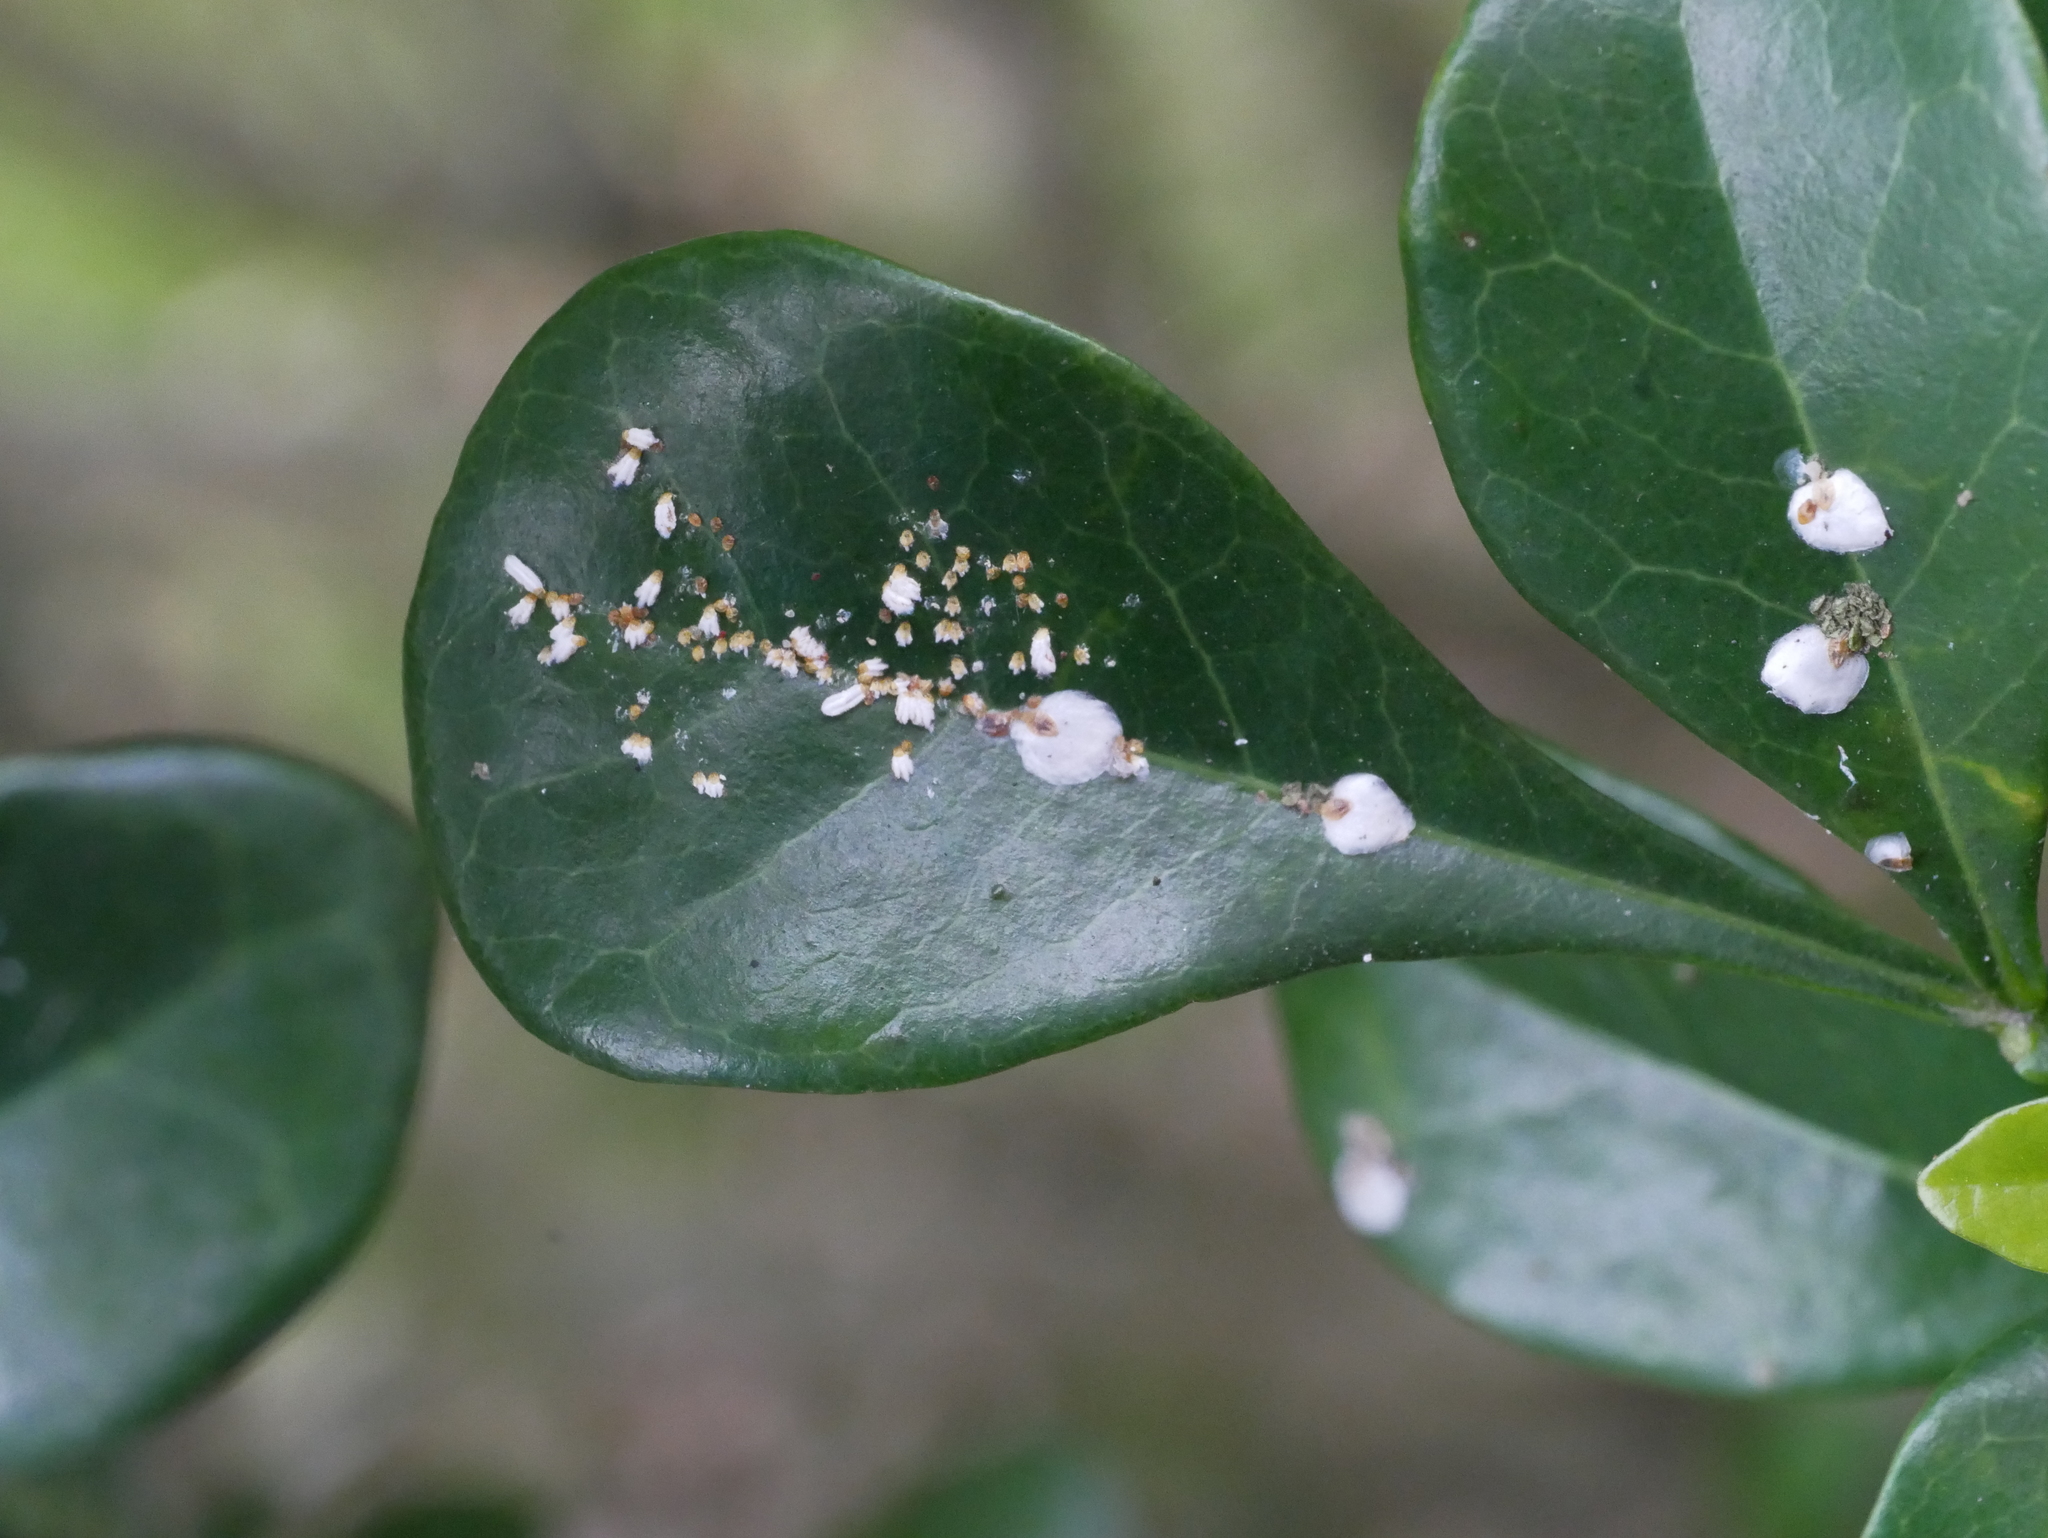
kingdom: Animalia
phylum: Arthropoda
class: Insecta
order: Hemiptera
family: Diaspididae
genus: Aulacaspis
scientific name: Aulacaspis murrayae
